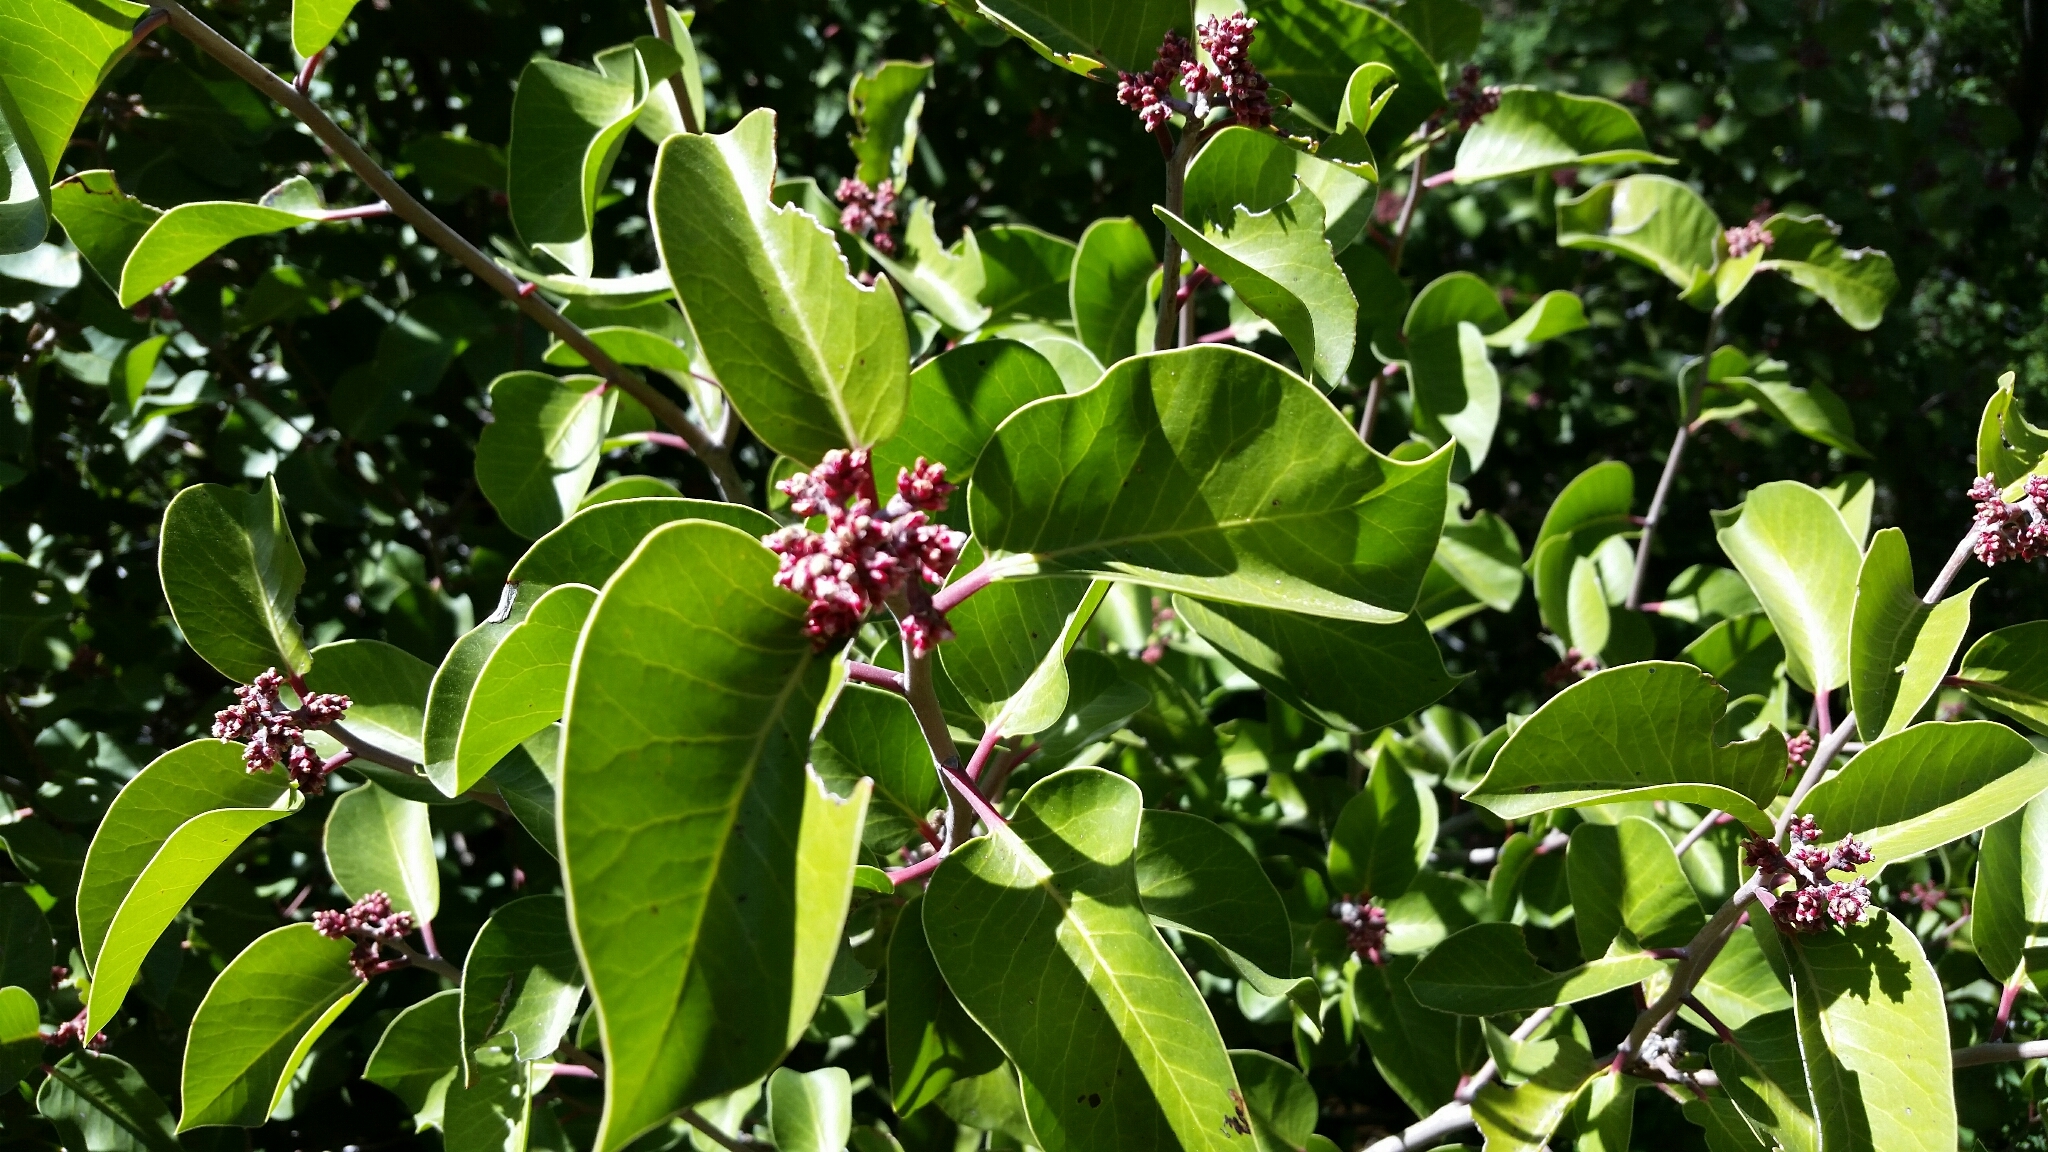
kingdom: Plantae
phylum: Tracheophyta
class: Magnoliopsida
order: Sapindales
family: Anacardiaceae
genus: Rhus
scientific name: Rhus ovata
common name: Sugar sumac
